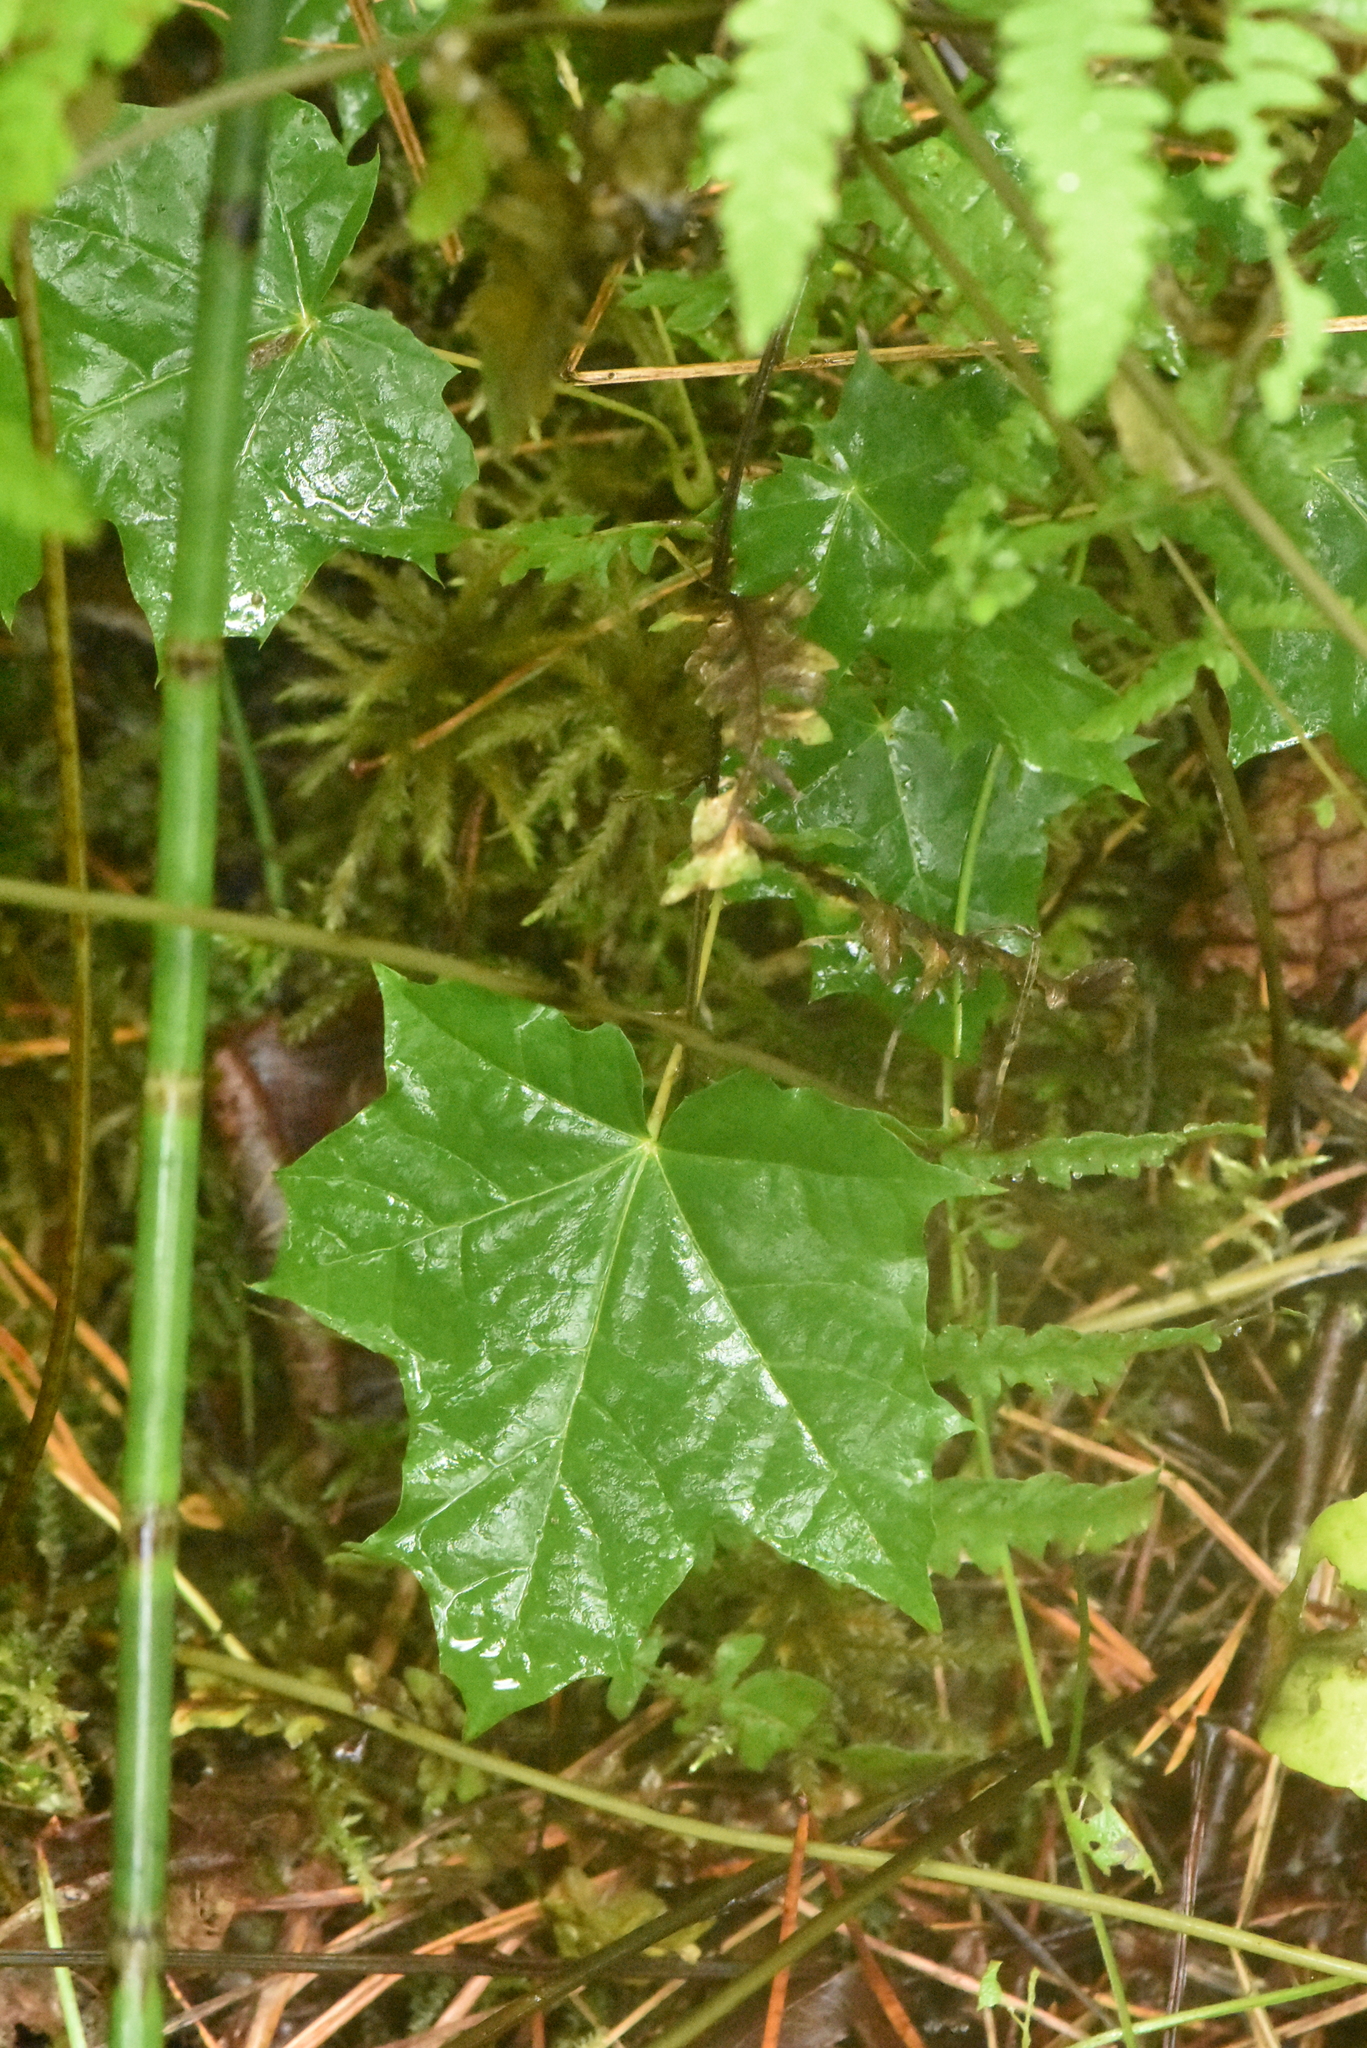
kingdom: Plantae
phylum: Tracheophyta
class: Magnoliopsida
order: Sapindales
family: Sapindaceae
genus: Acer
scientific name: Acer platanoides
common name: Norway maple
